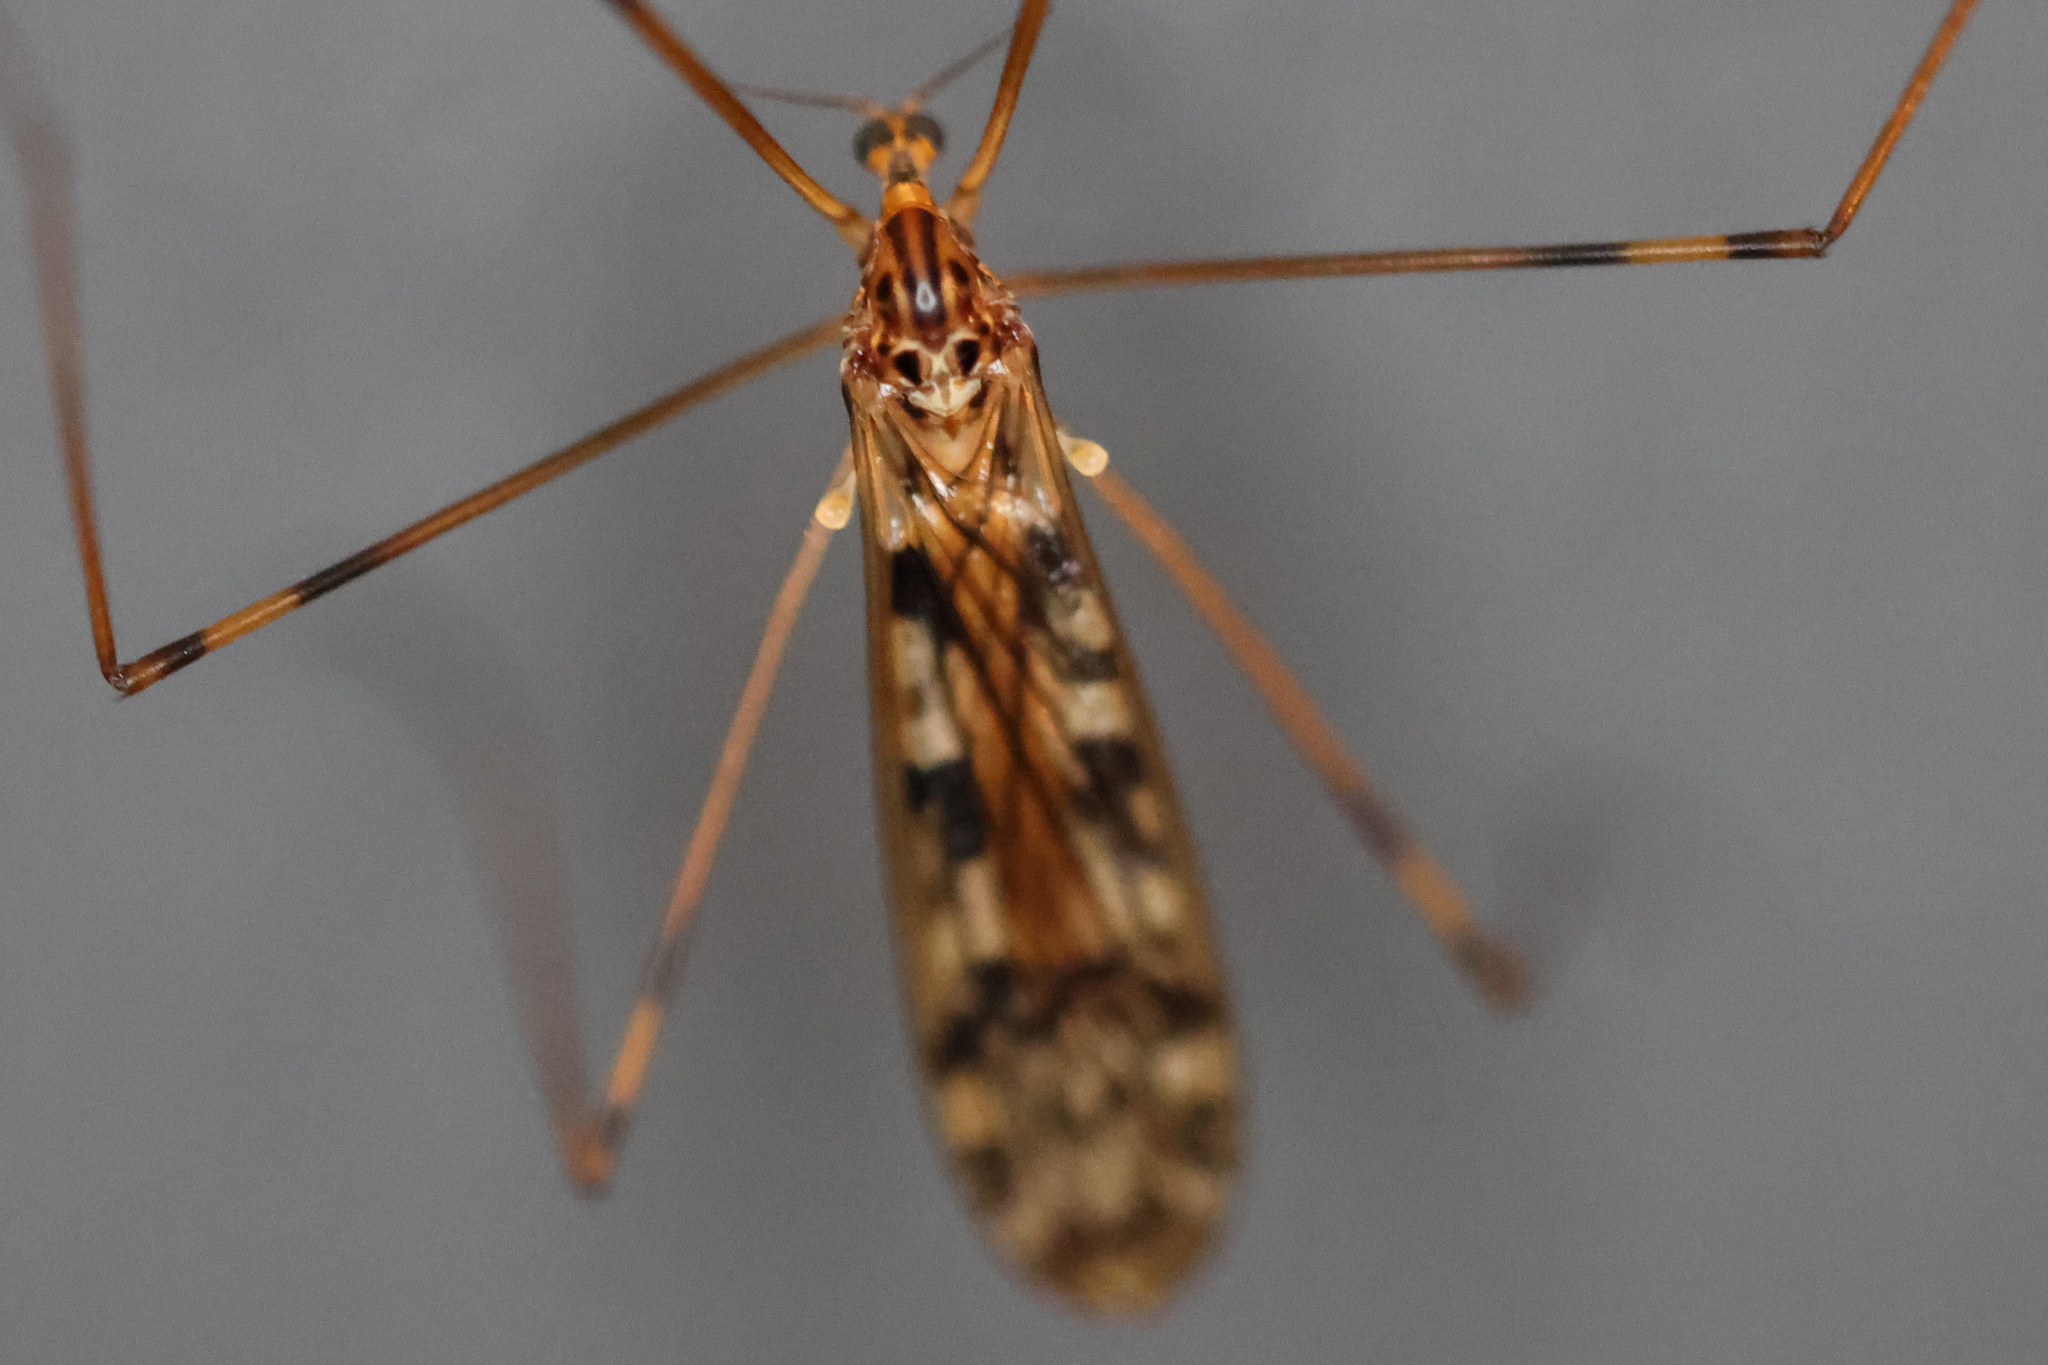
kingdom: Animalia
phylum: Arthropoda
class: Insecta
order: Diptera
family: Limoniidae
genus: Limonia
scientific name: Limonia cinctipes
